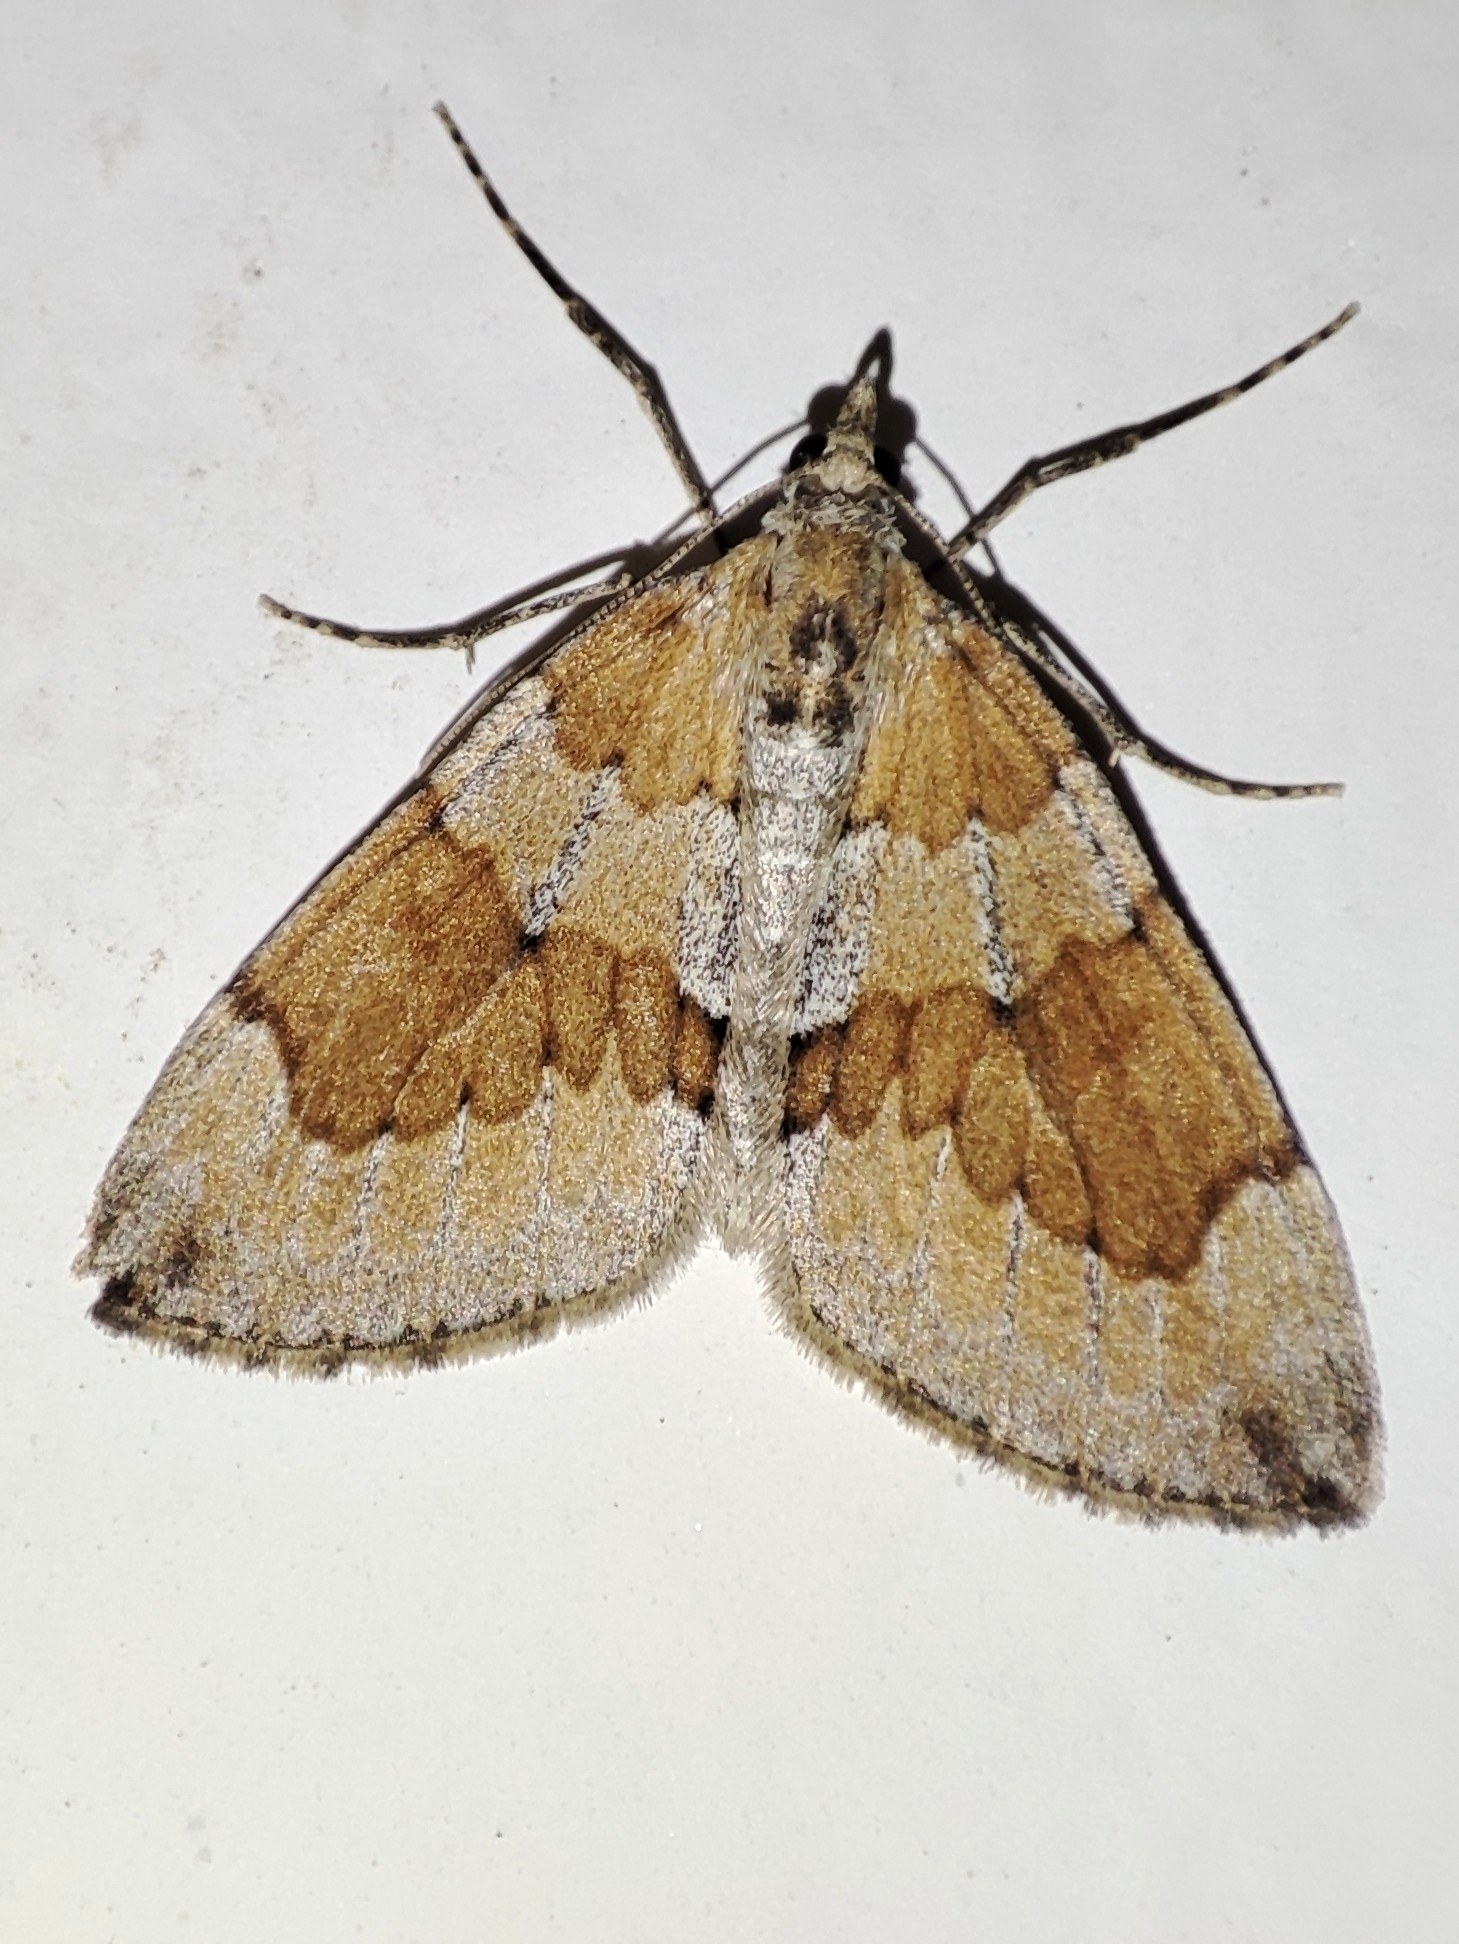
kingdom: Animalia
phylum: Arthropoda
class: Insecta
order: Lepidoptera
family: Geometridae
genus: Thera
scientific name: Thera obeliscata
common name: Grey pine carpet
